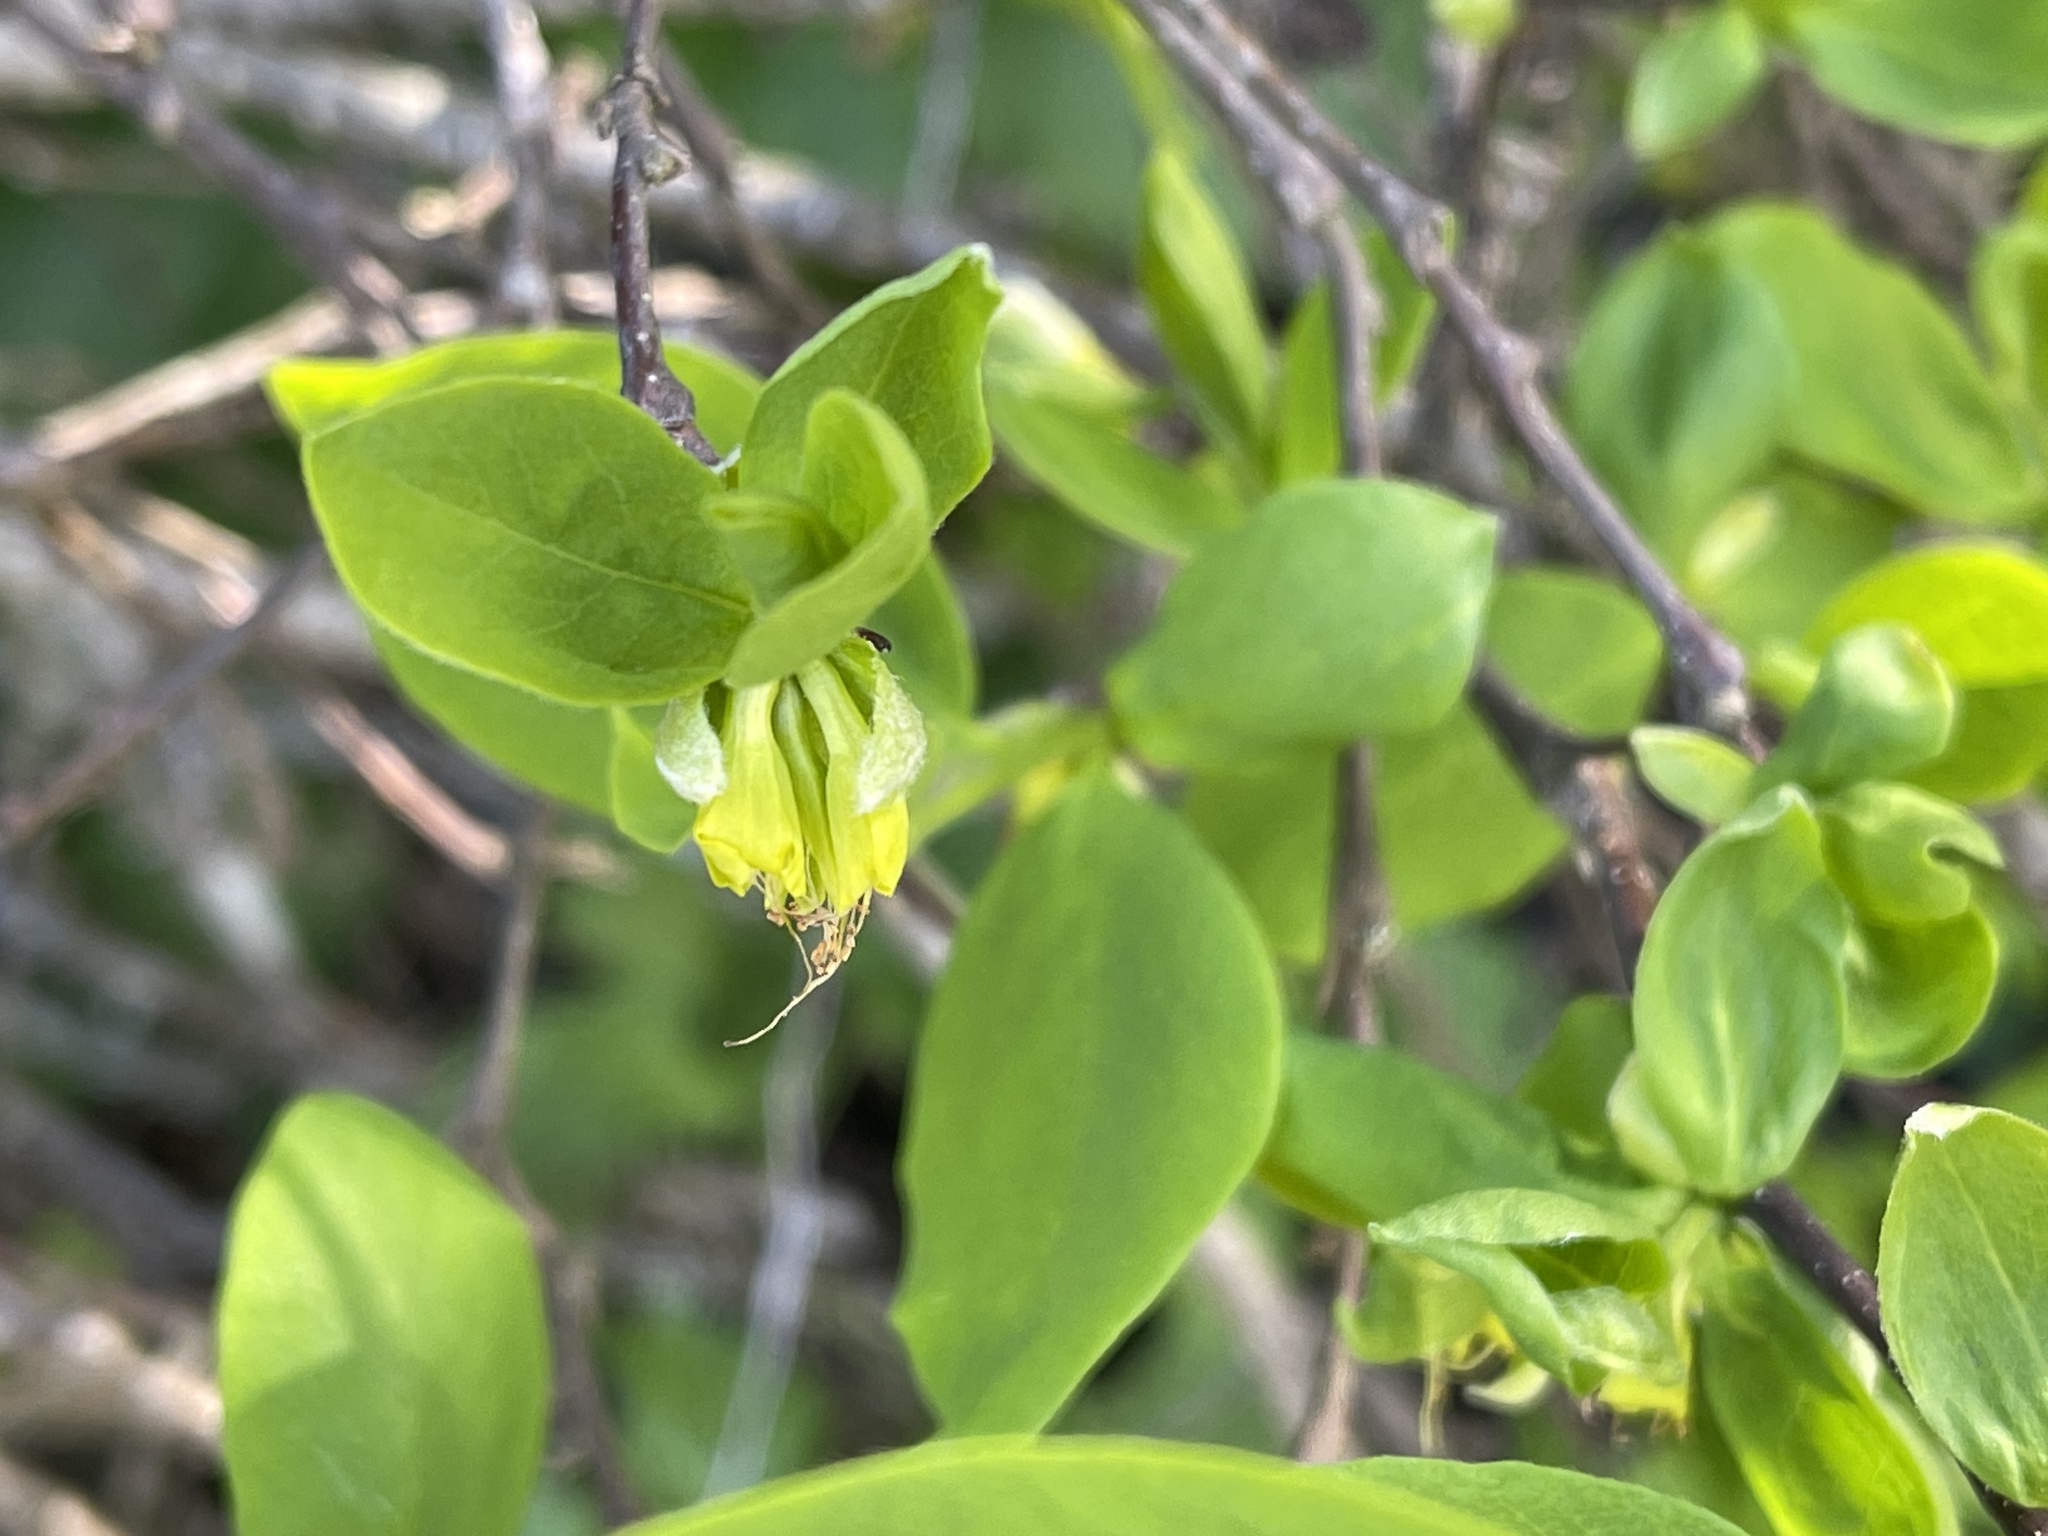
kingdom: Plantae
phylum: Tracheophyta
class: Magnoliopsida
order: Malvales
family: Thymelaeaceae
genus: Dirca
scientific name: Dirca occidentalis
